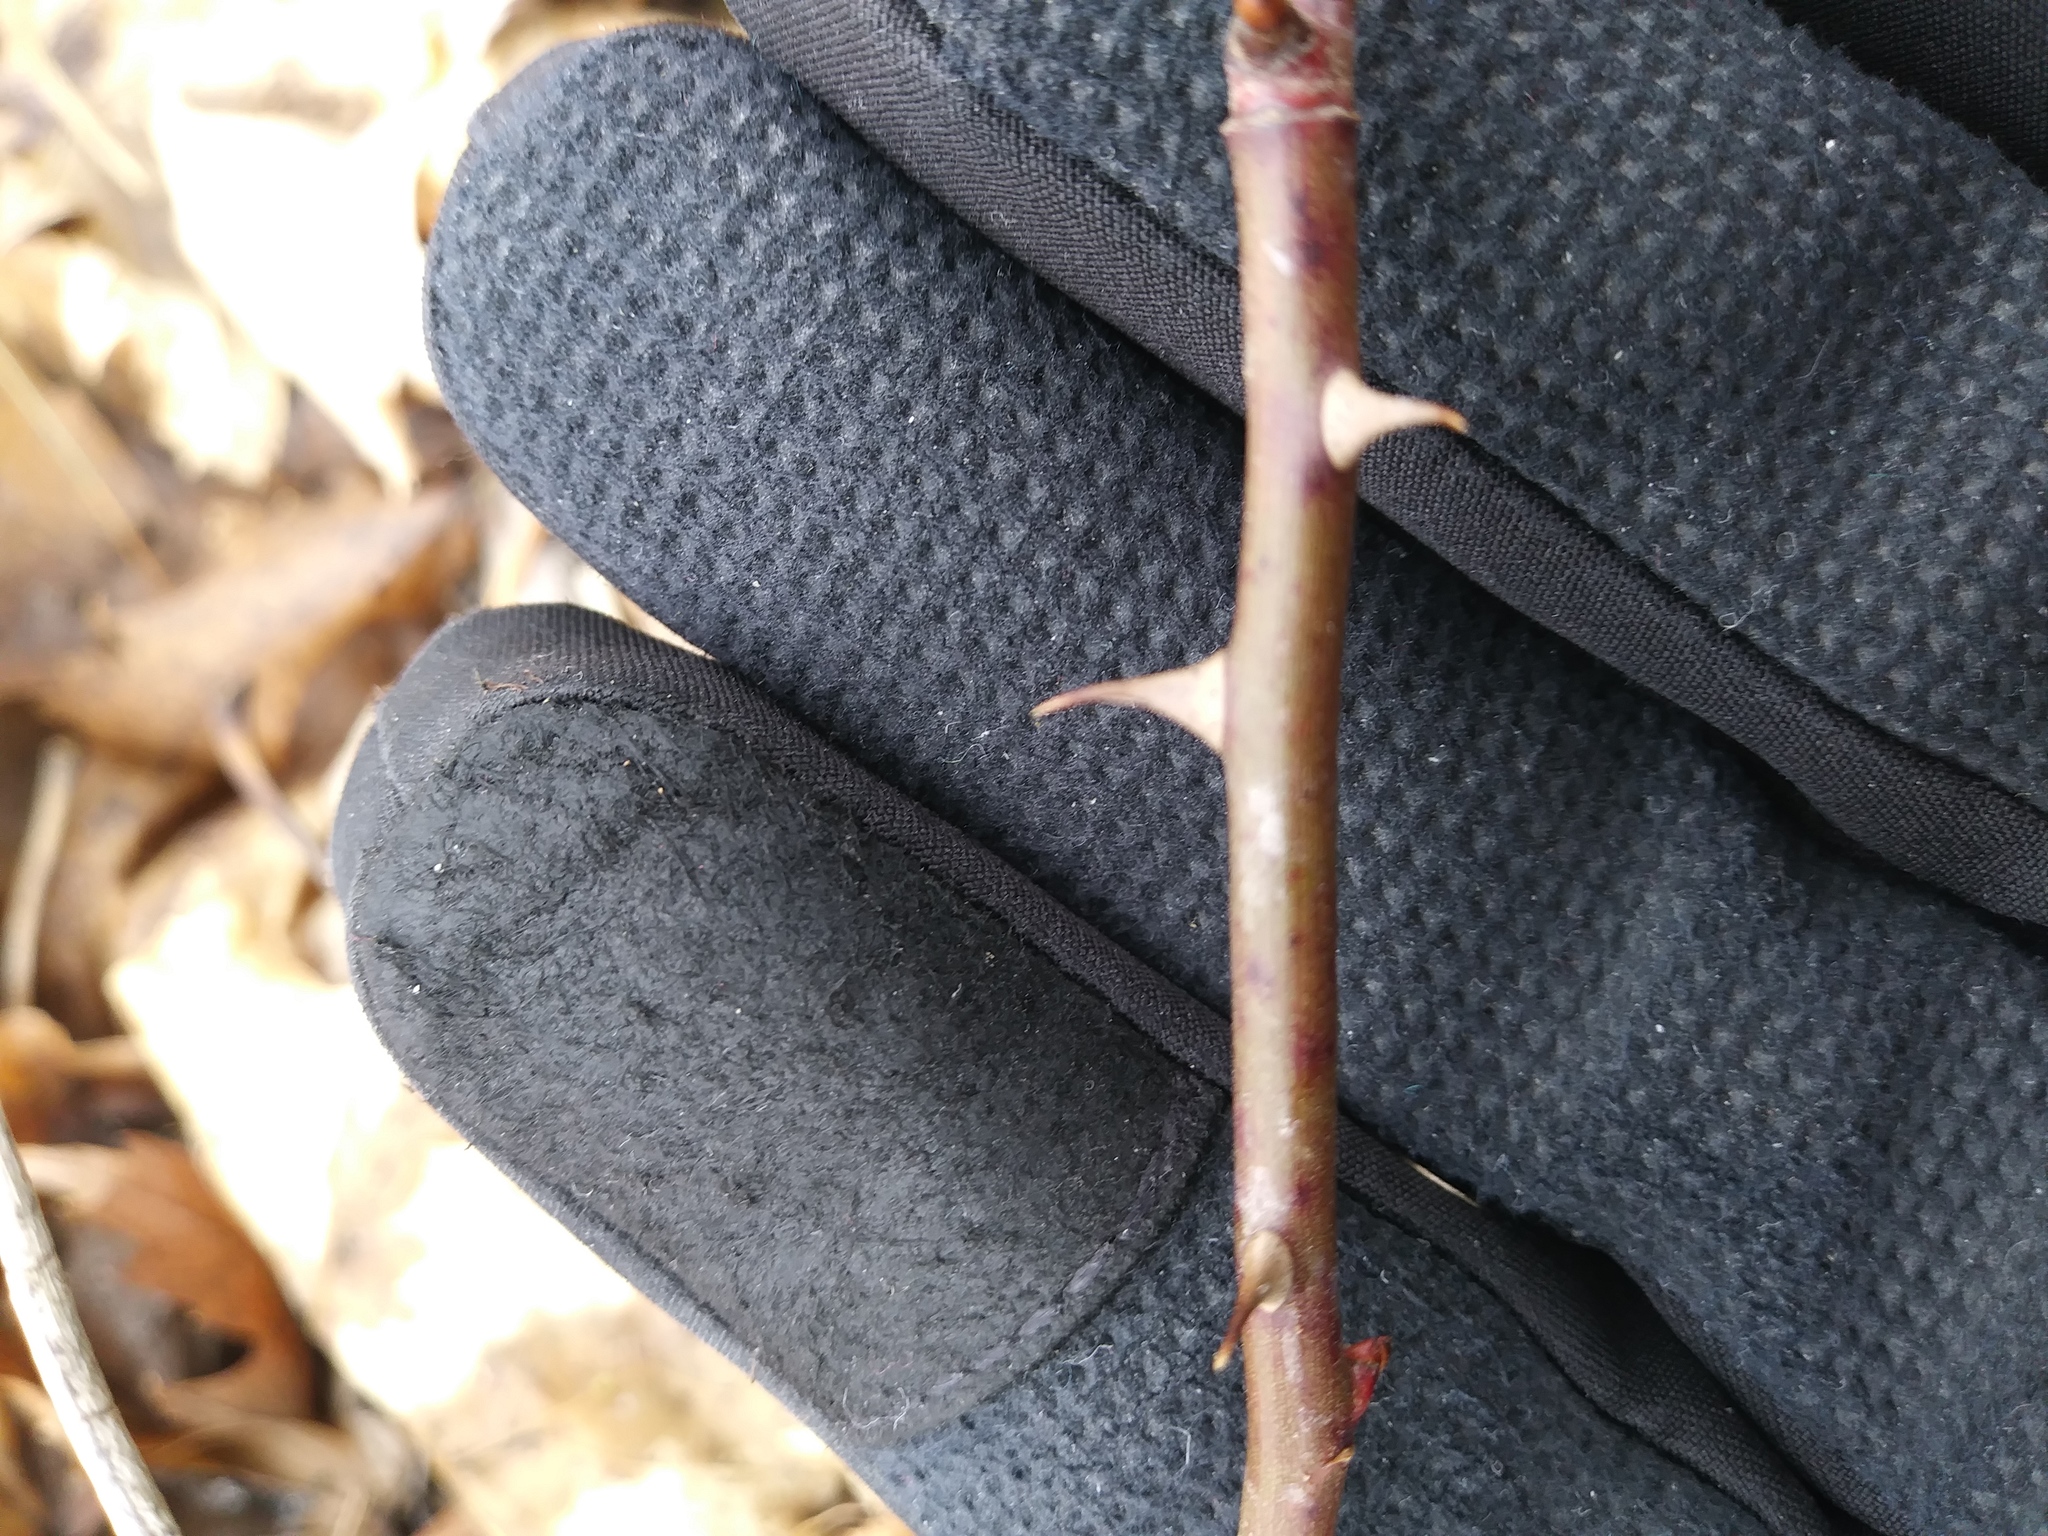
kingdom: Plantae
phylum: Tracheophyta
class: Magnoliopsida
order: Rosales
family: Rosaceae
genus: Rosa
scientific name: Rosa multiflora
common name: Multiflora rose
